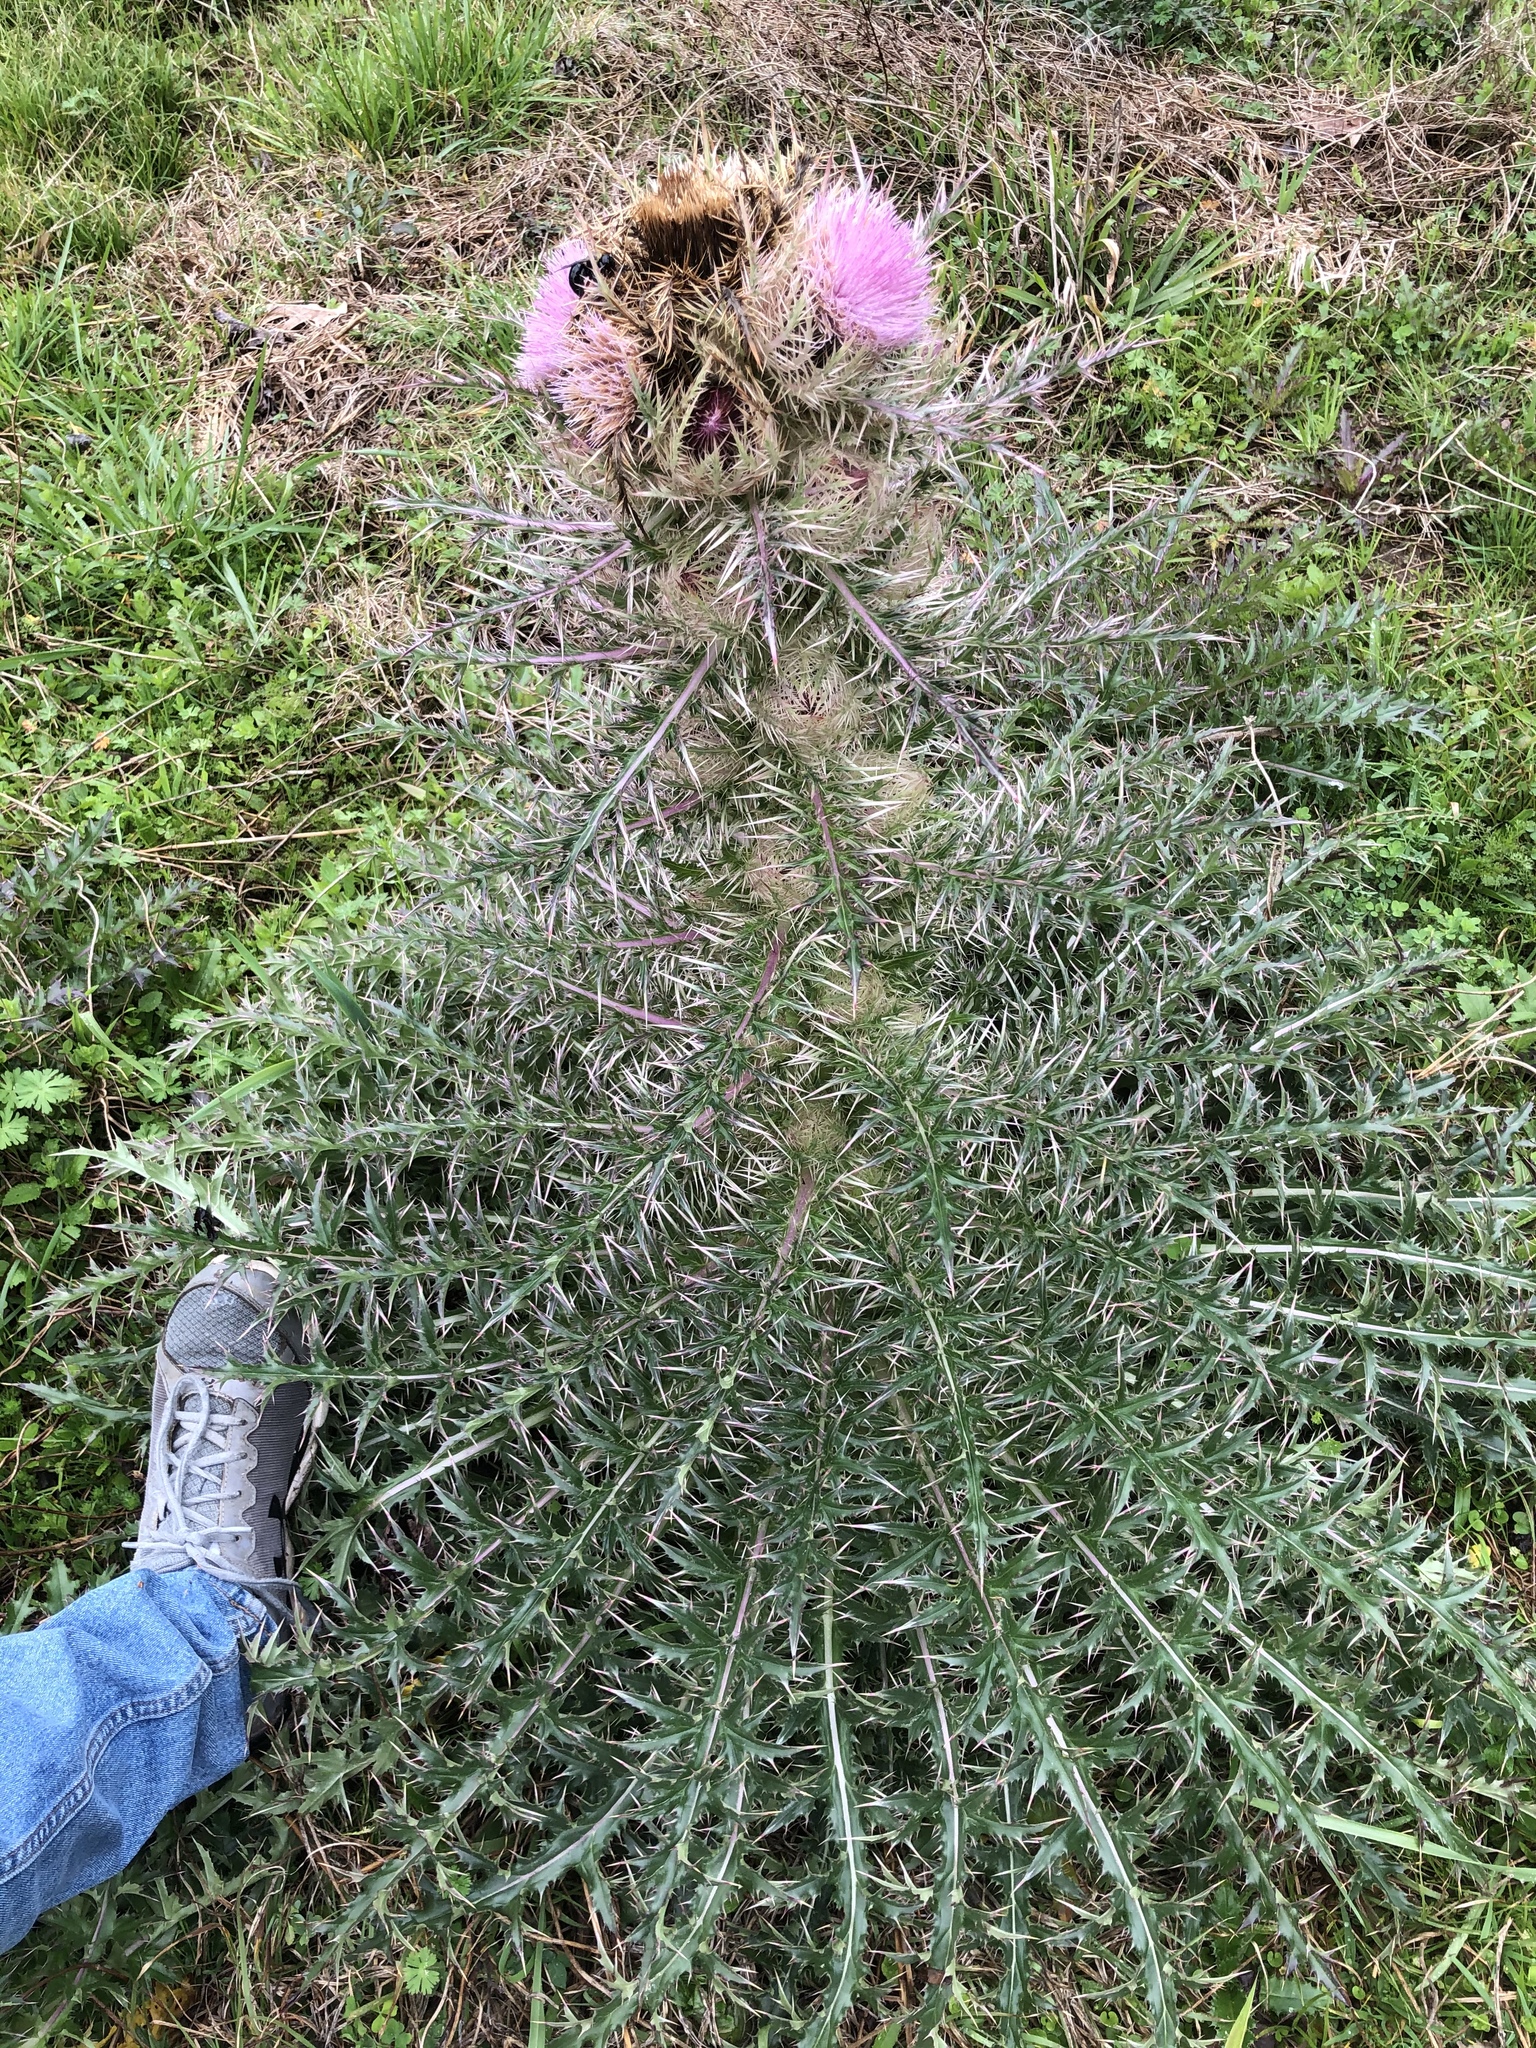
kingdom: Plantae
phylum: Tracheophyta
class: Magnoliopsida
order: Asterales
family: Asteraceae
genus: Cirsium
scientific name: Cirsium horridulum
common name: Bristly thistle
